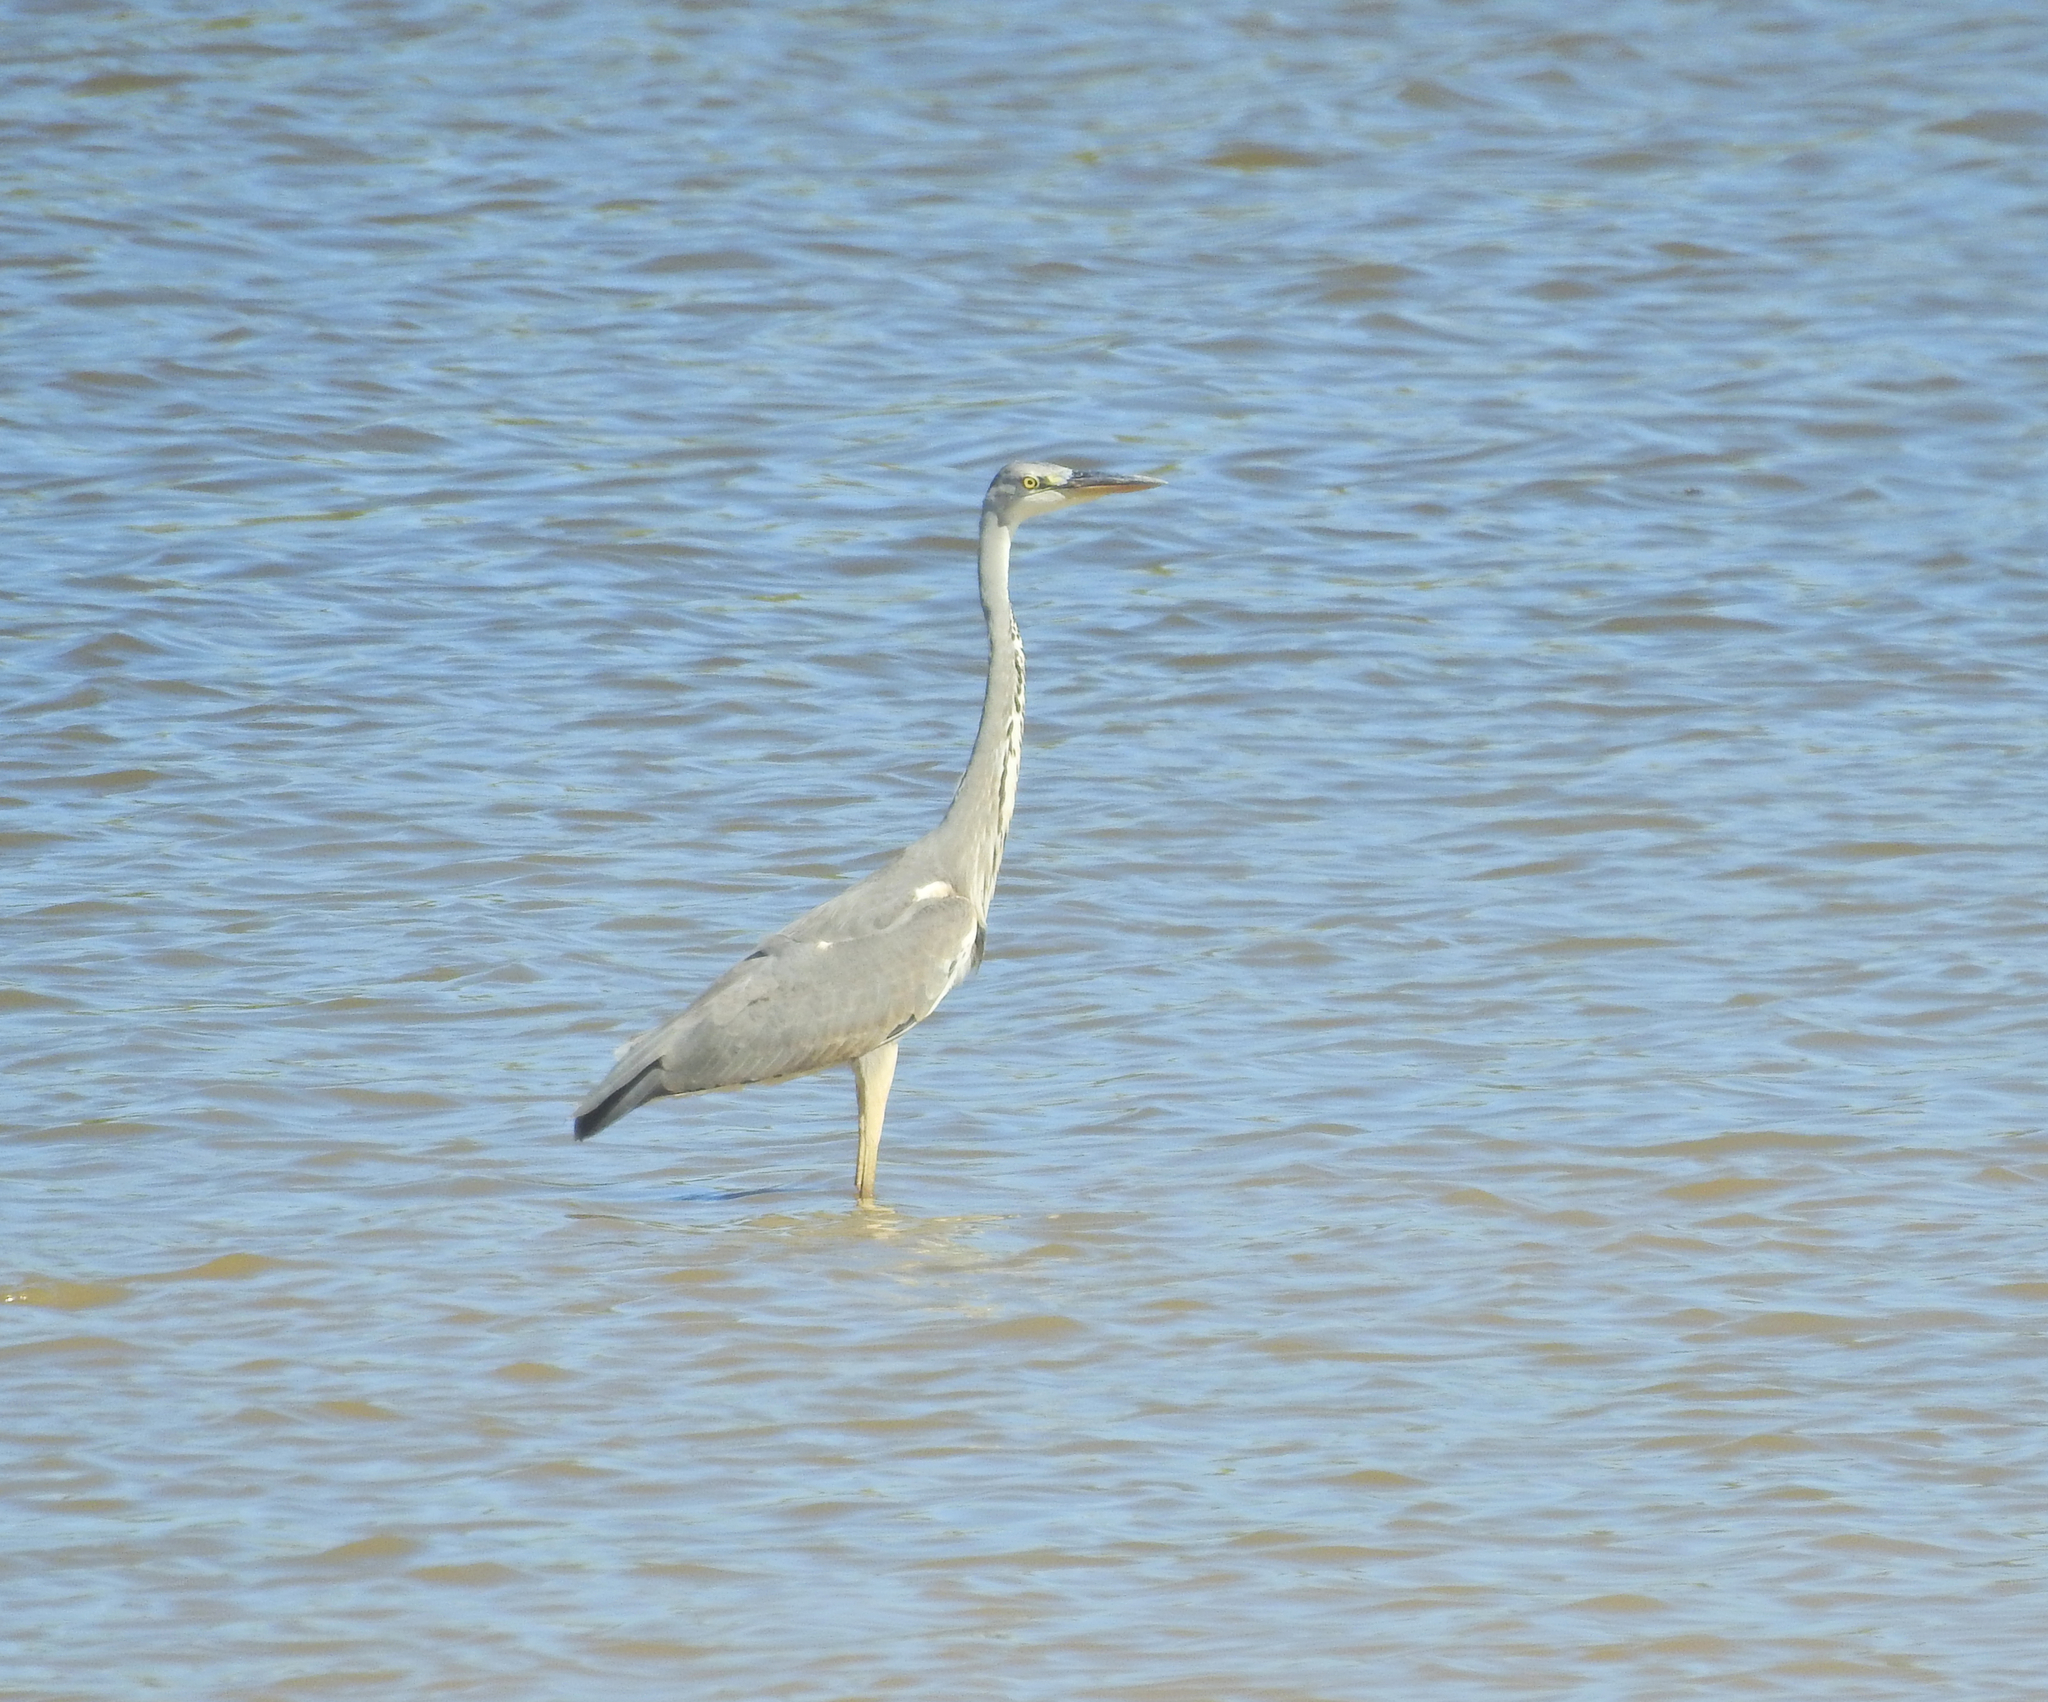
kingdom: Animalia
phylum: Chordata
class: Aves
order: Pelecaniformes
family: Ardeidae
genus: Ardea
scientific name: Ardea cinerea
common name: Grey heron
